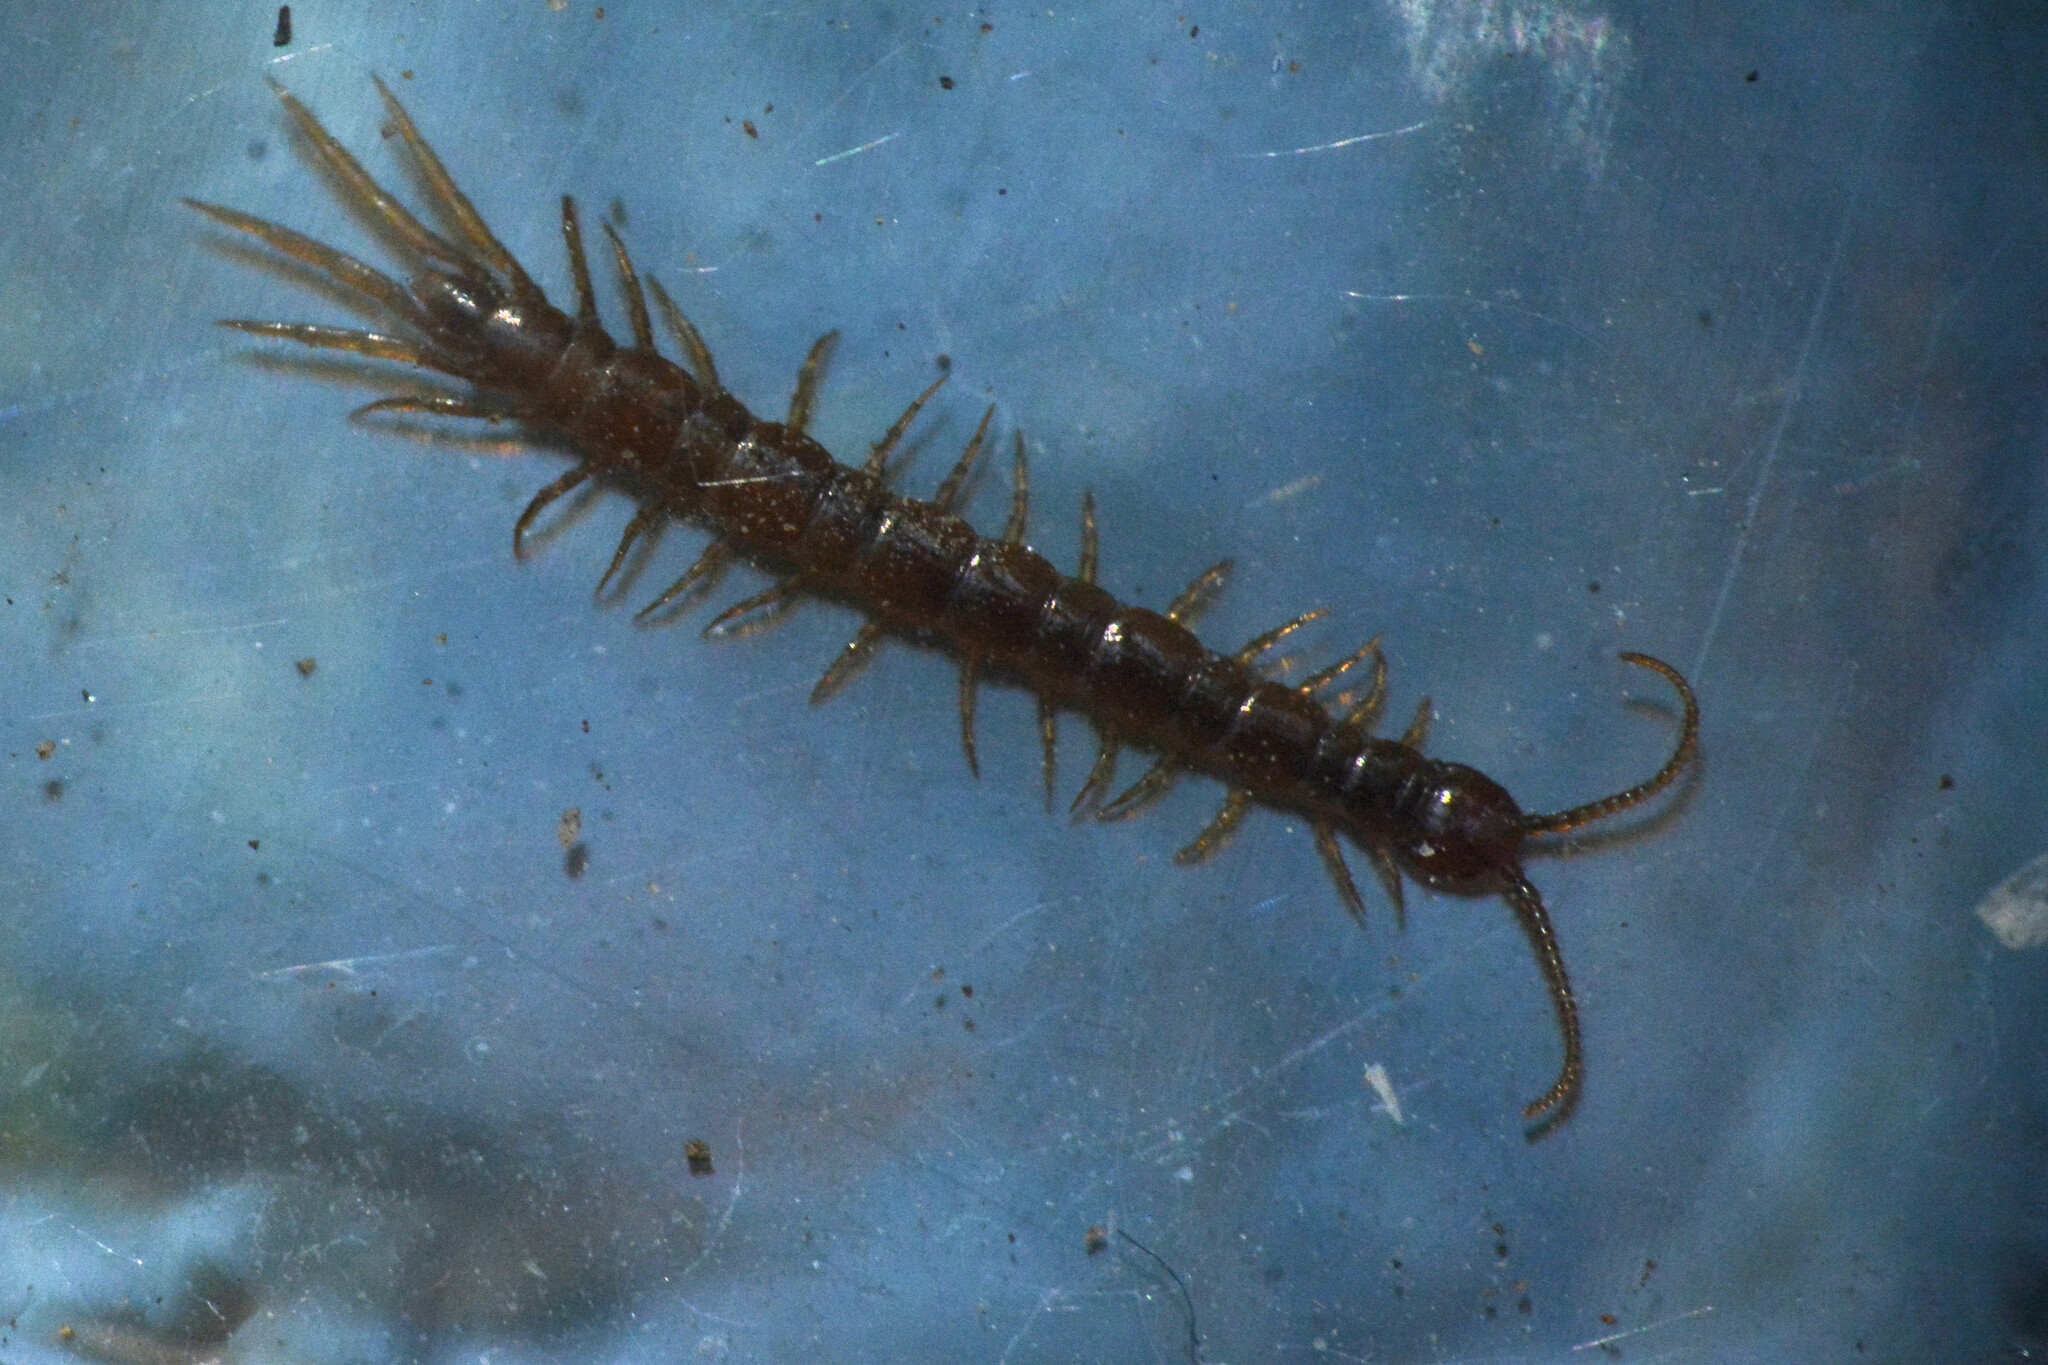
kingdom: Animalia
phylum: Arthropoda
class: Chilopoda
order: Lithobiomorpha
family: Lithobiidae
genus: Lithobius
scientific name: Lithobius microps
